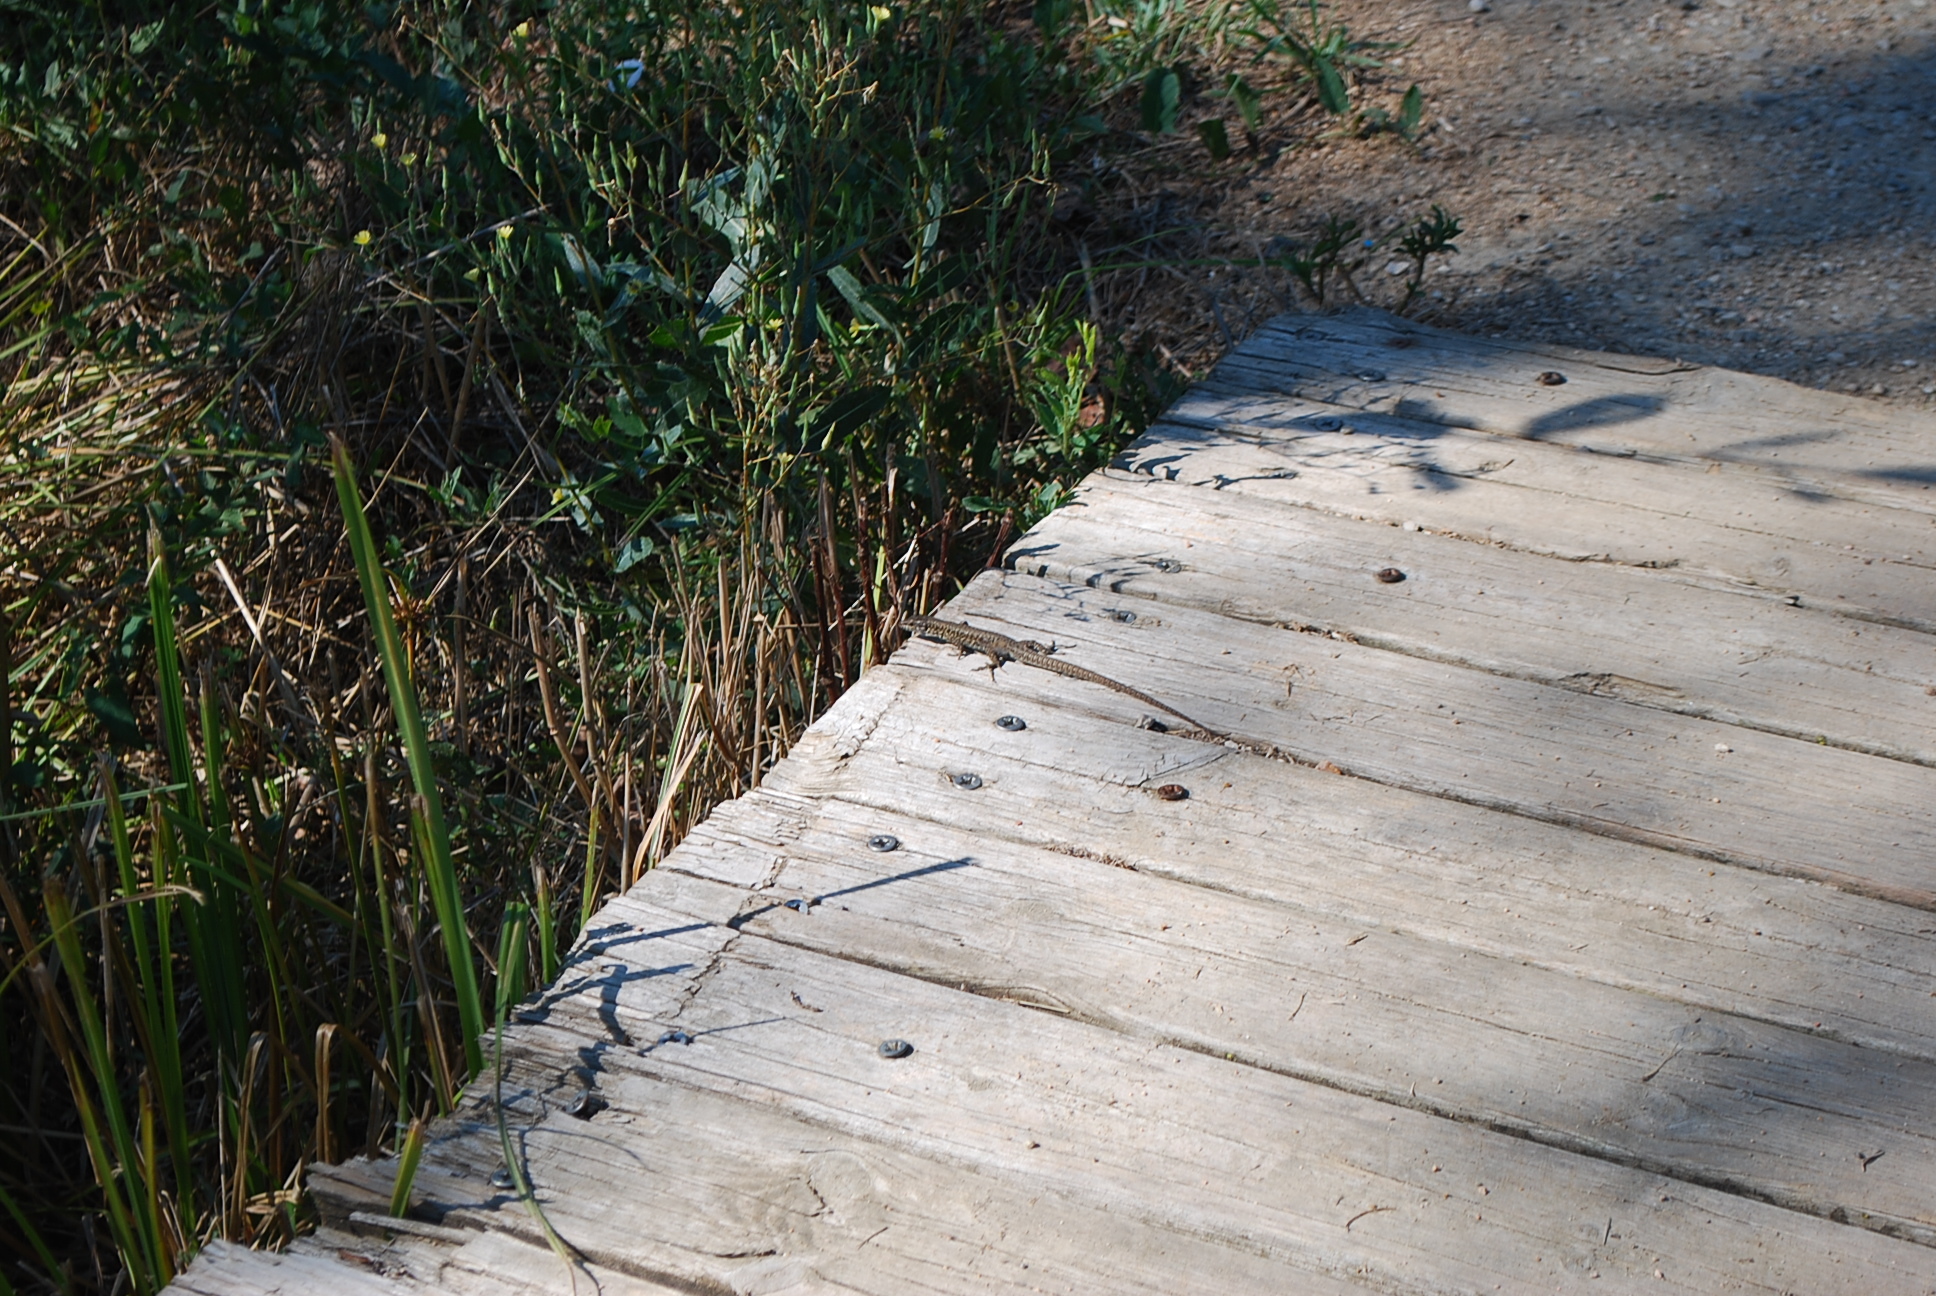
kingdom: Animalia
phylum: Chordata
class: Squamata
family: Lacertidae
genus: Podarcis
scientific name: Podarcis muralis
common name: Common wall lizard
